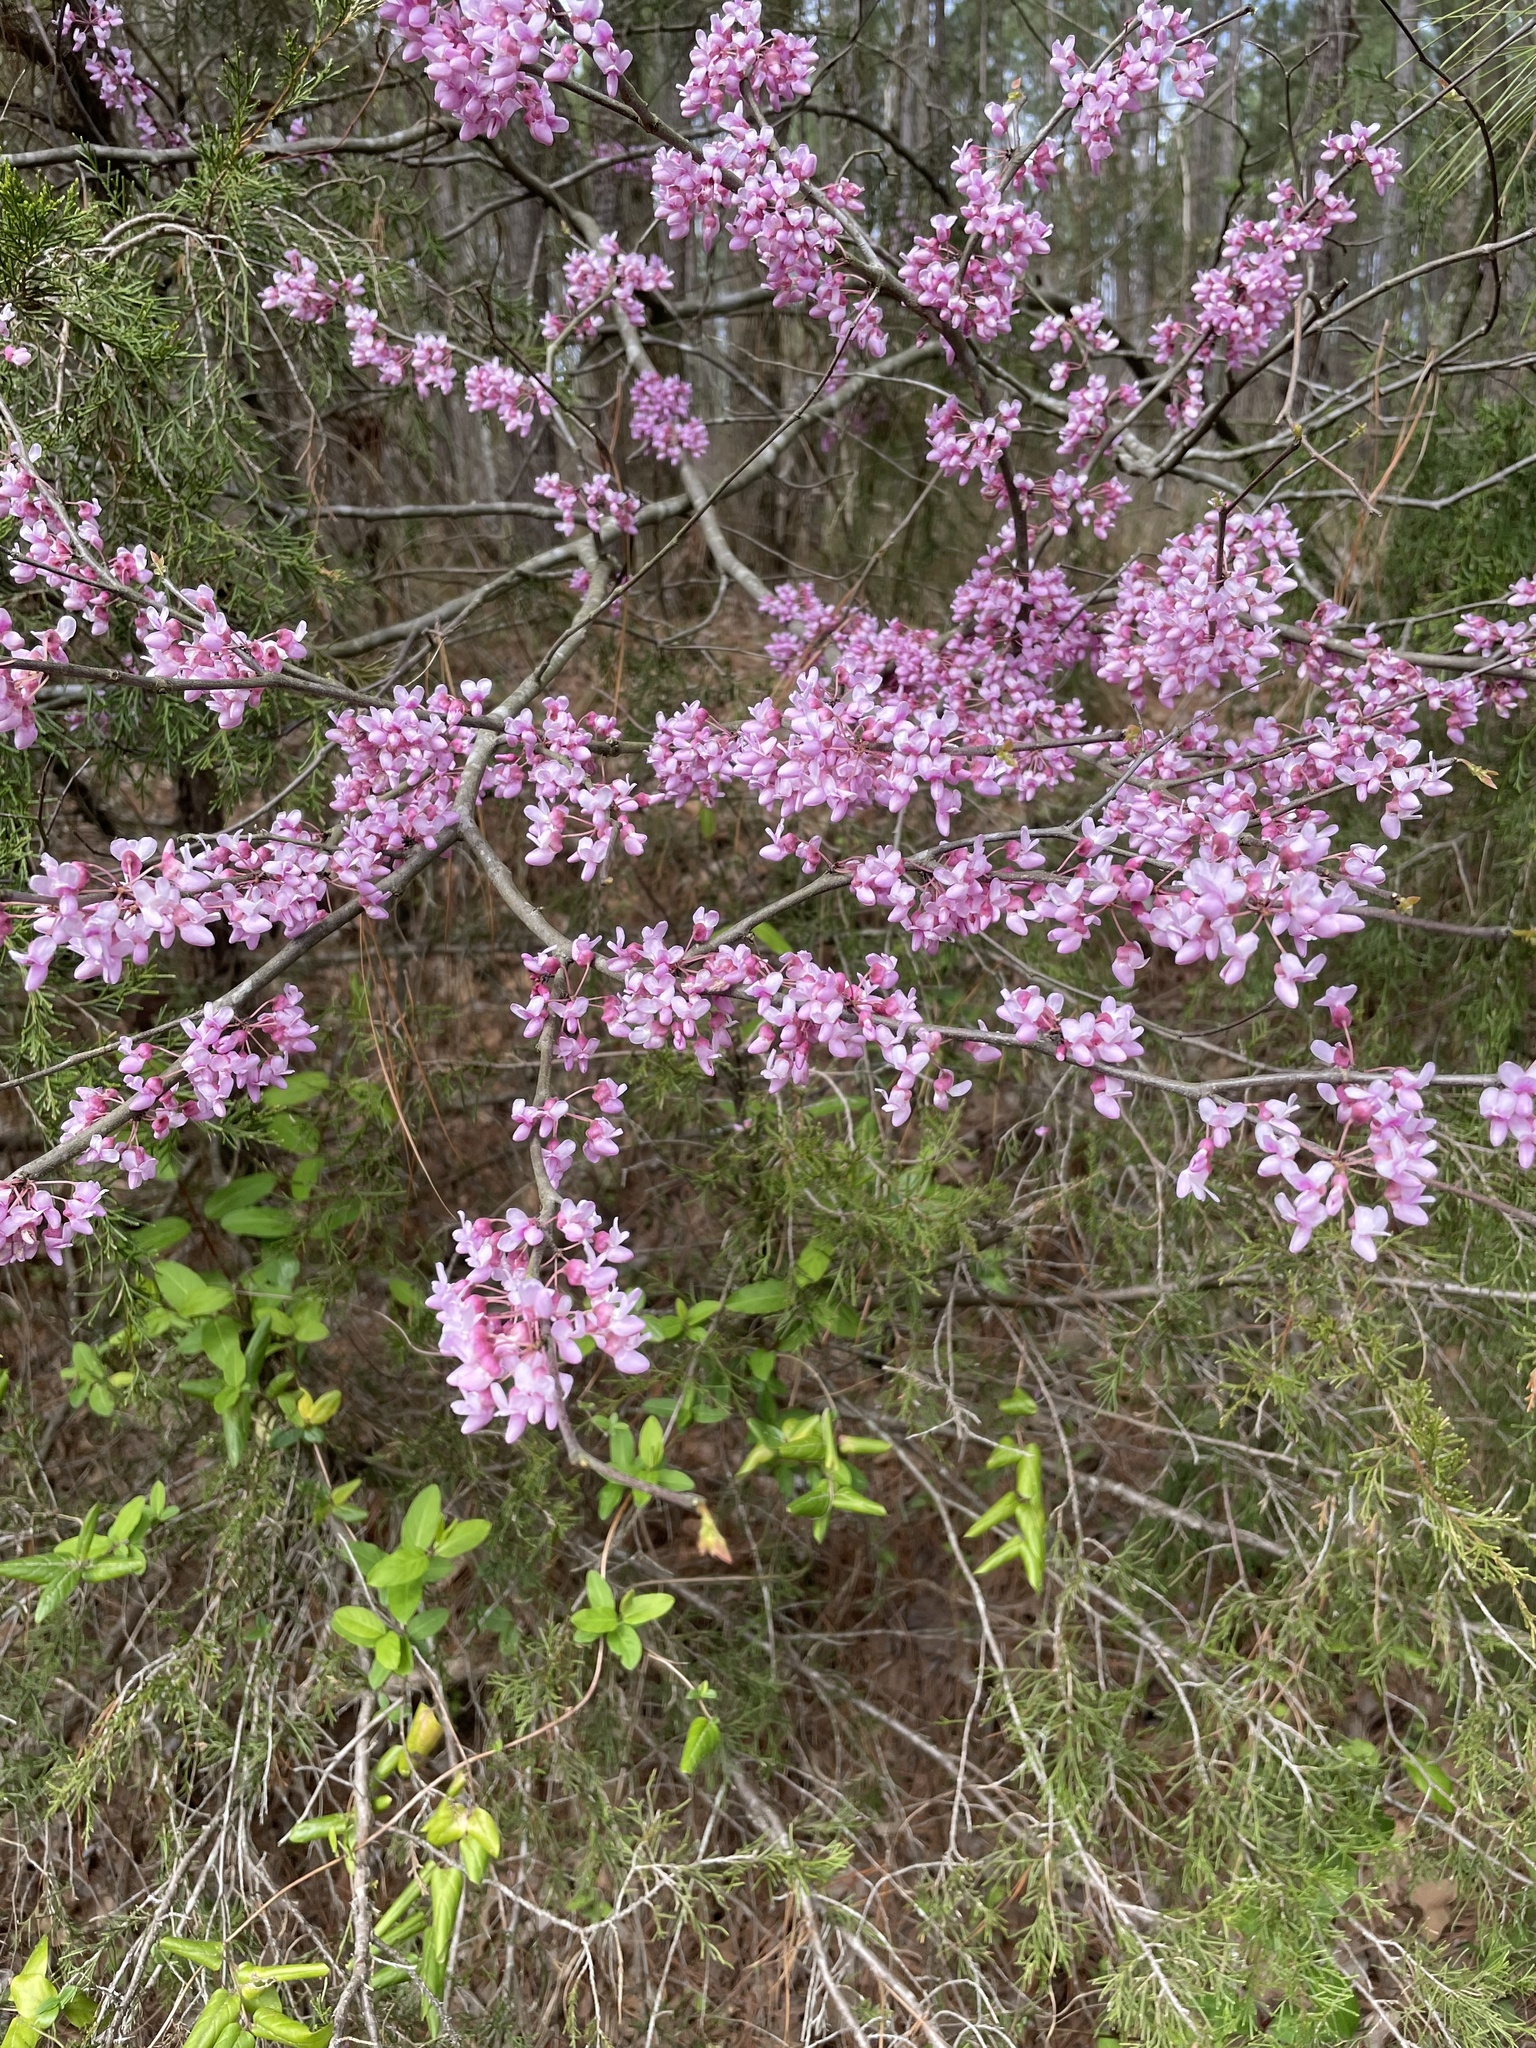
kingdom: Plantae
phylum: Tracheophyta
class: Magnoliopsida
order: Fabales
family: Fabaceae
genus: Cercis
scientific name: Cercis canadensis
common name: Eastern redbud
